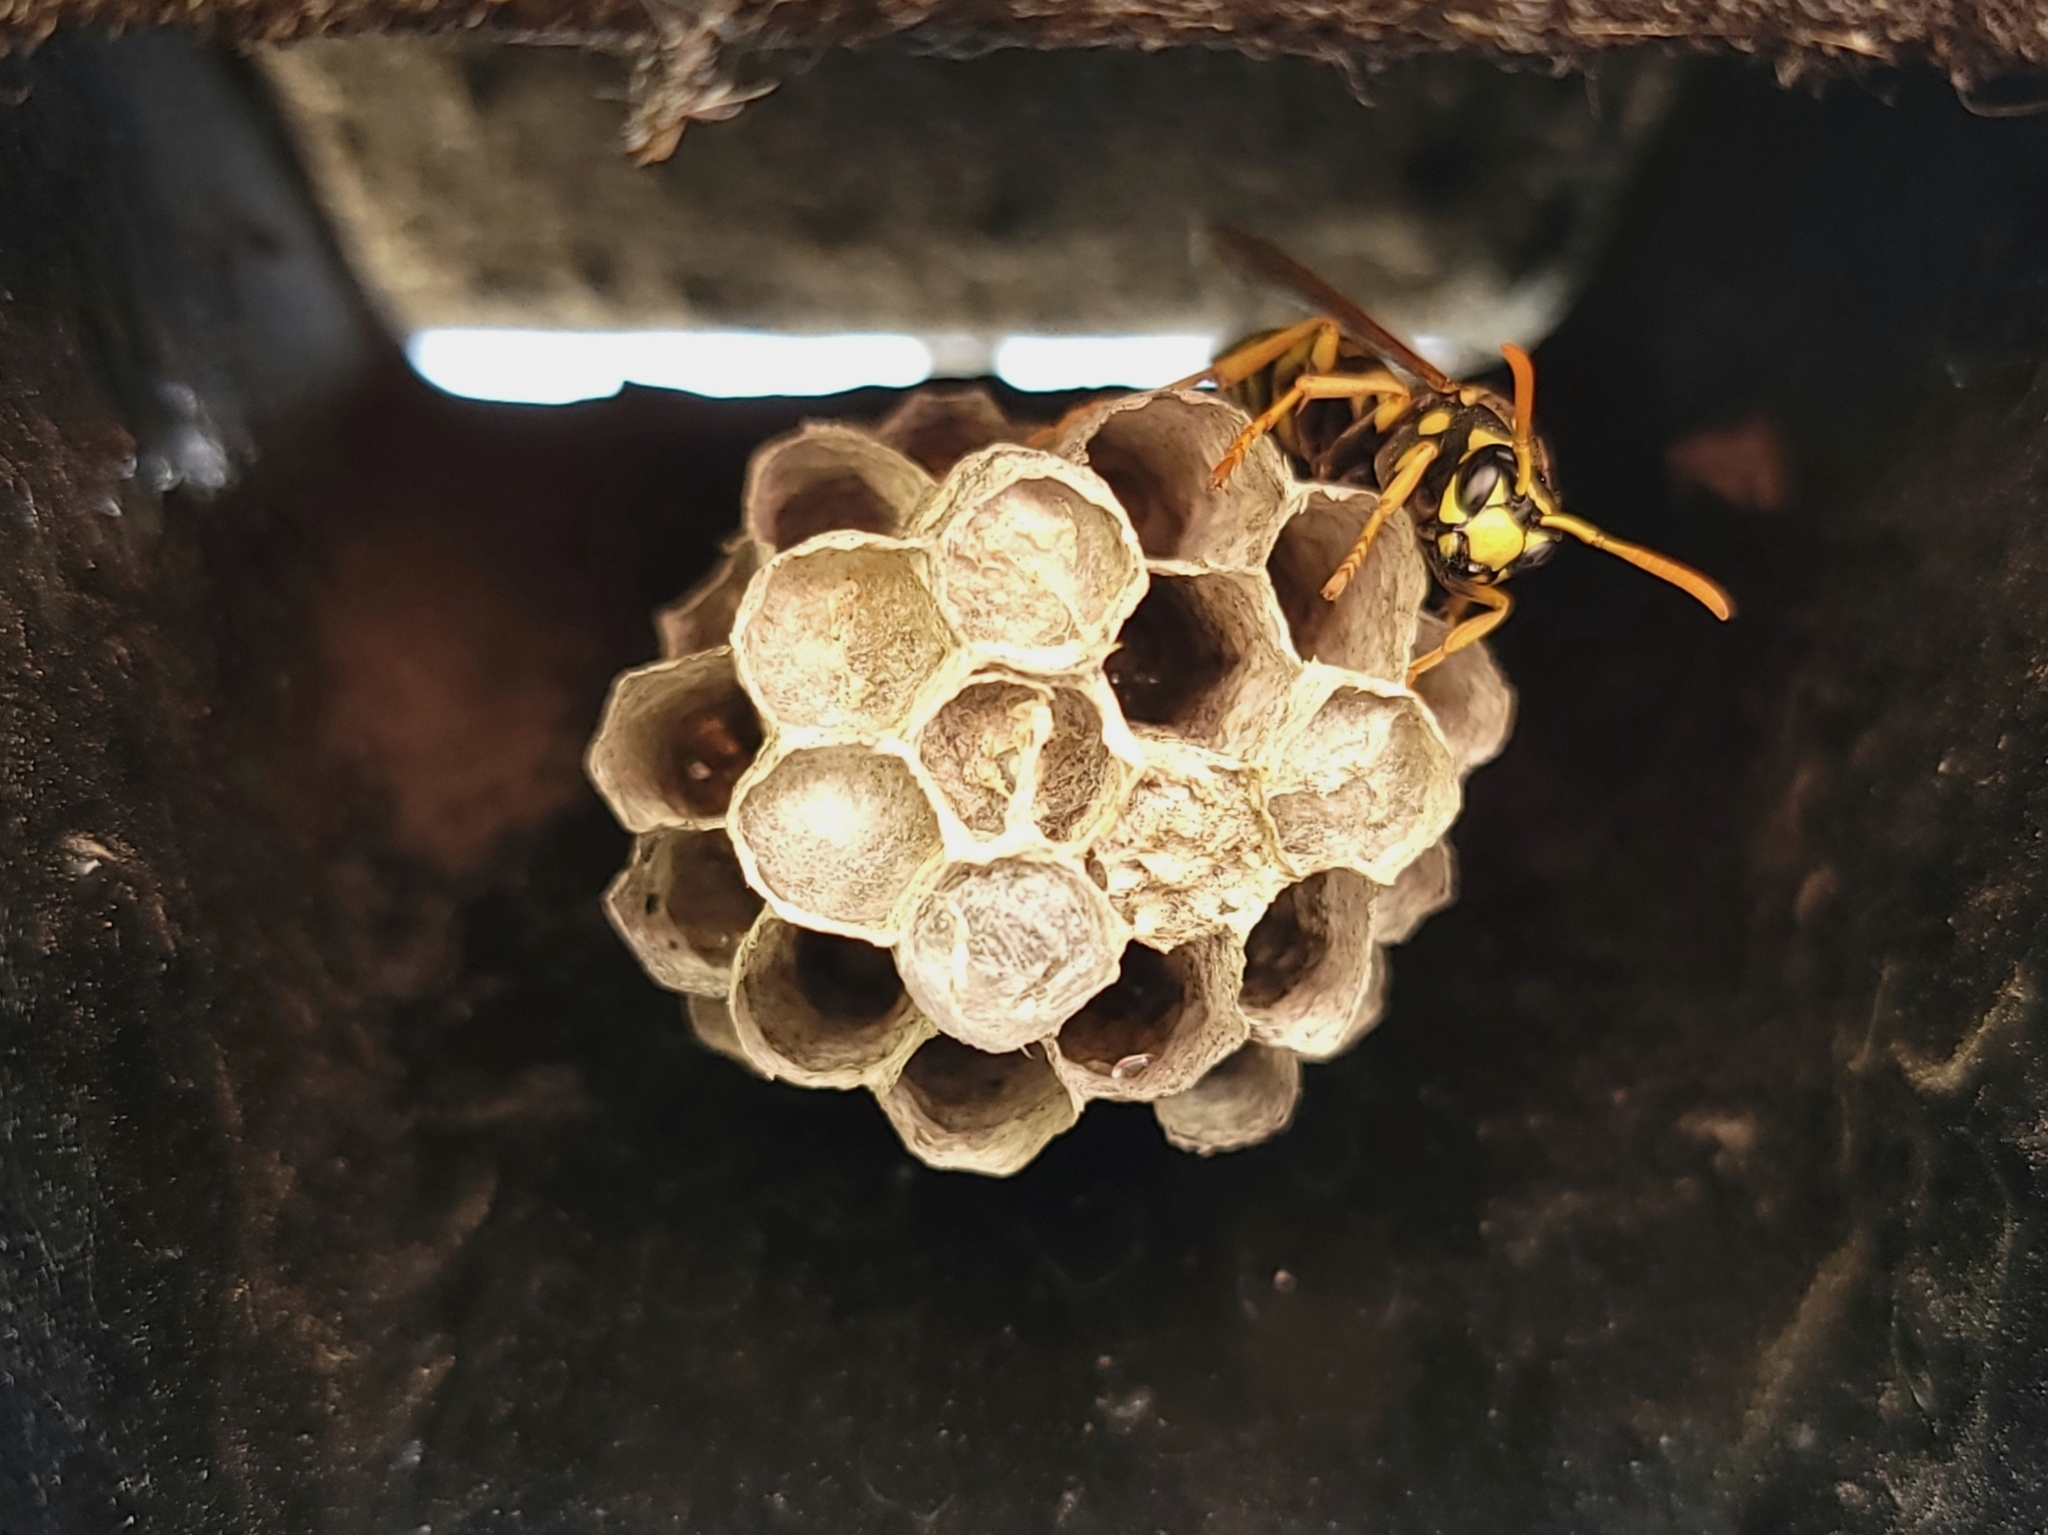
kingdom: Animalia
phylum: Arthropoda
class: Insecta
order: Hymenoptera
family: Eumenidae
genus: Polistes
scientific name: Polistes dominula
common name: Paper wasp
